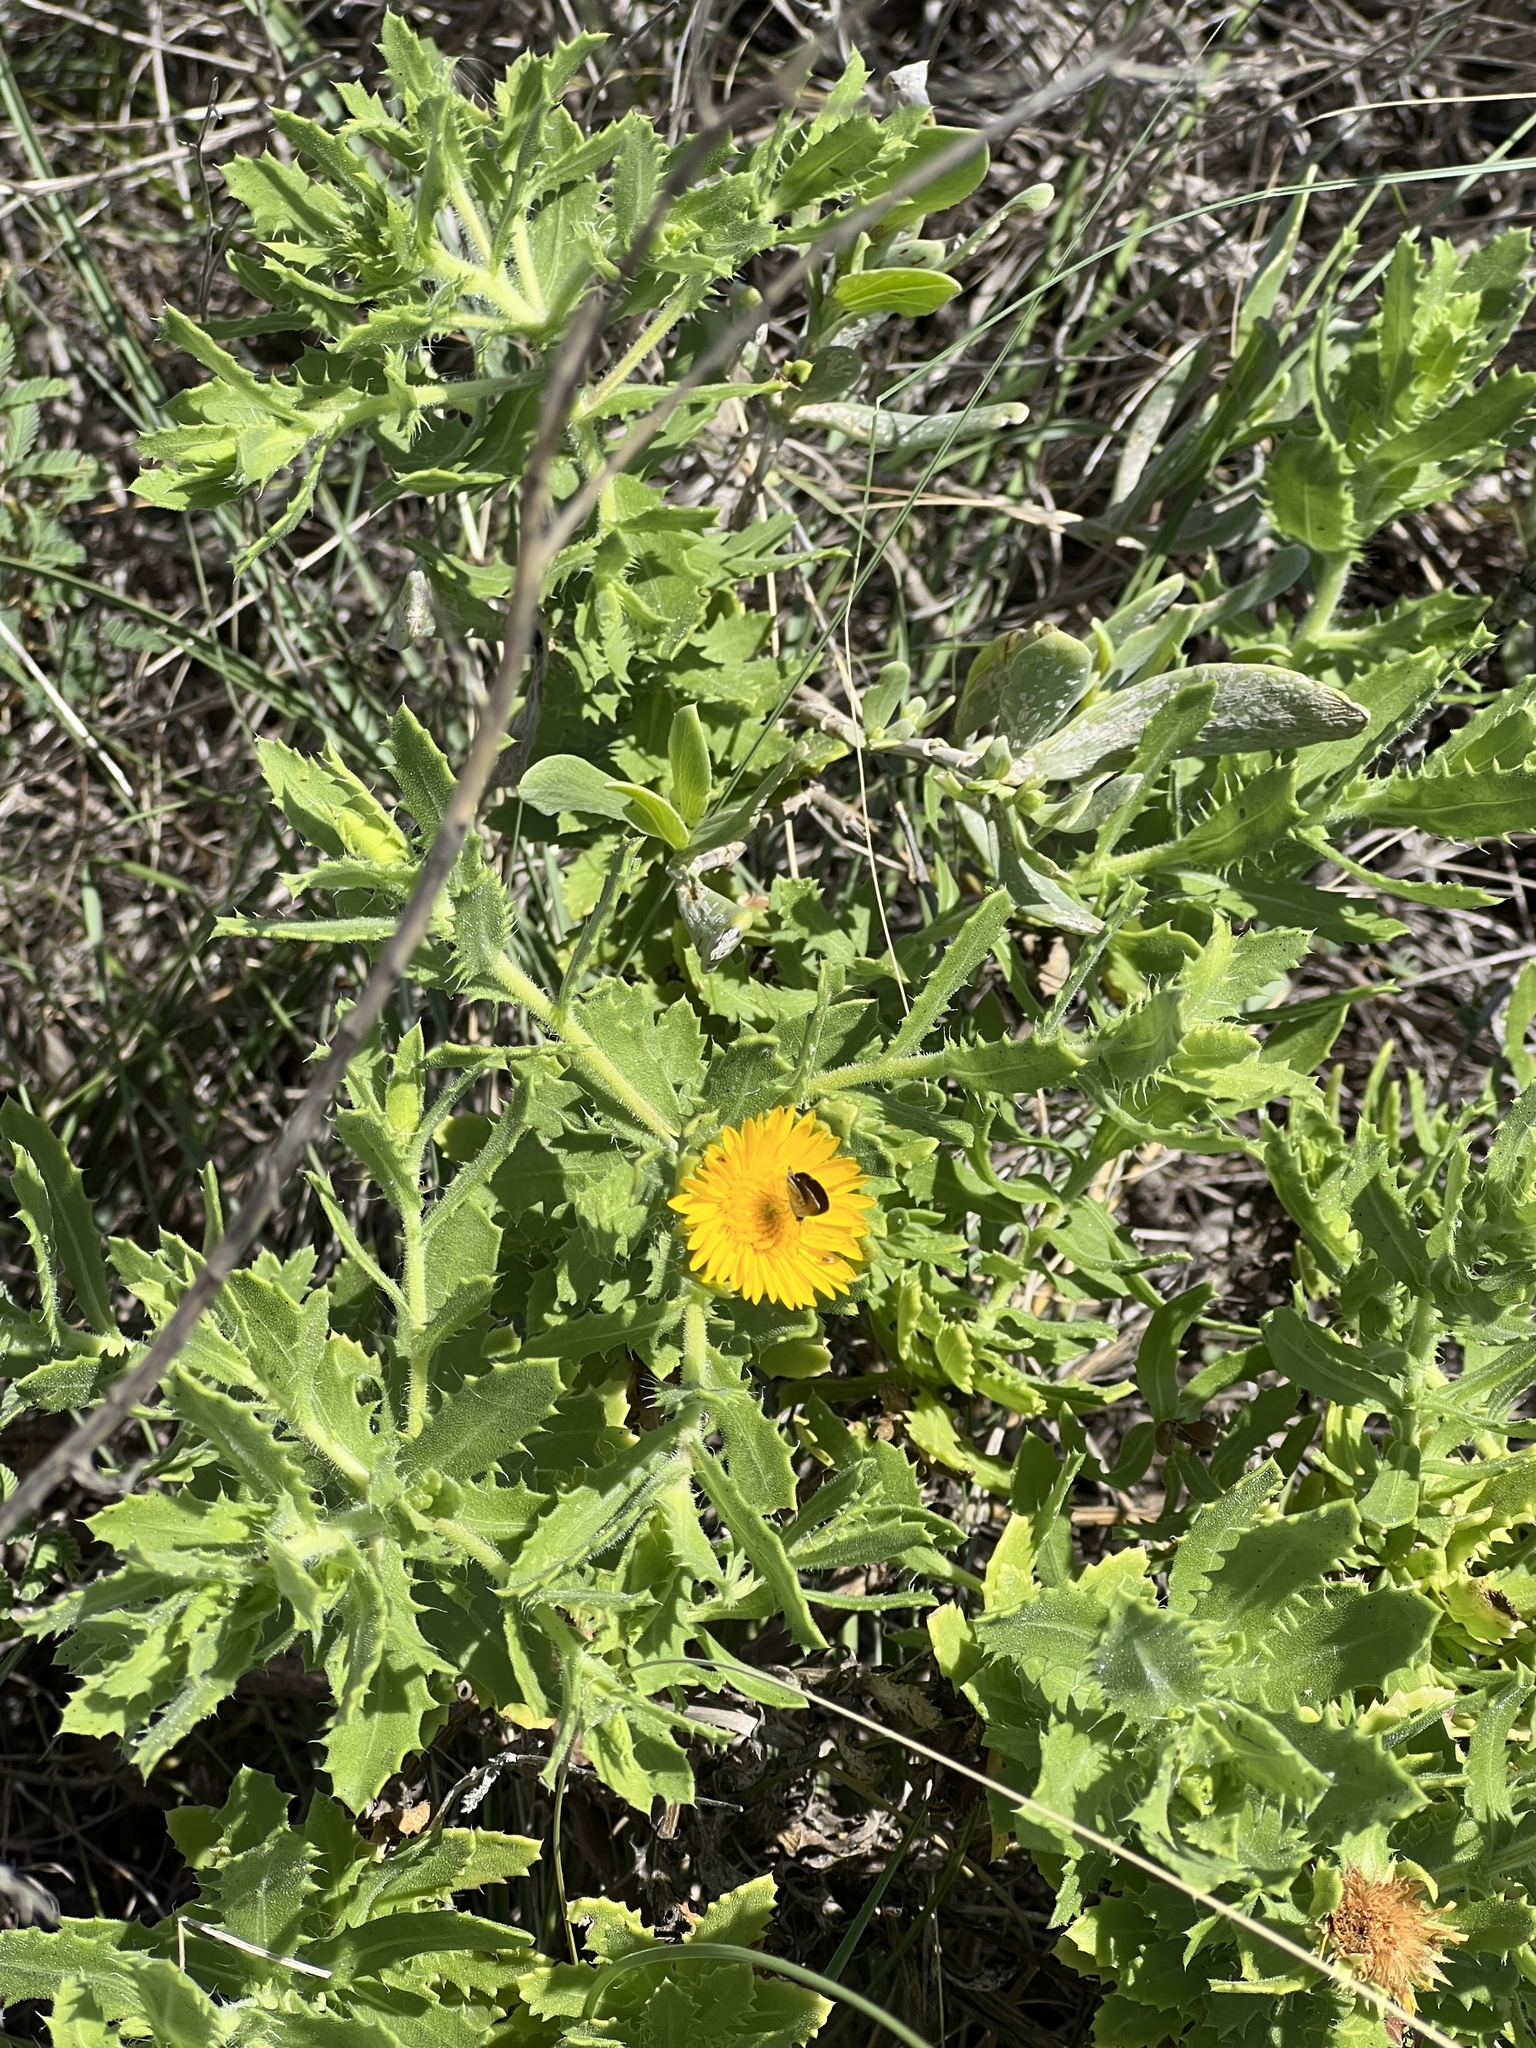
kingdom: Plantae
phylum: Tracheophyta
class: Magnoliopsida
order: Asterales
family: Asteraceae
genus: Rayjacksonia
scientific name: Rayjacksonia phyllocephala
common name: Gulf coast camphor daisy
